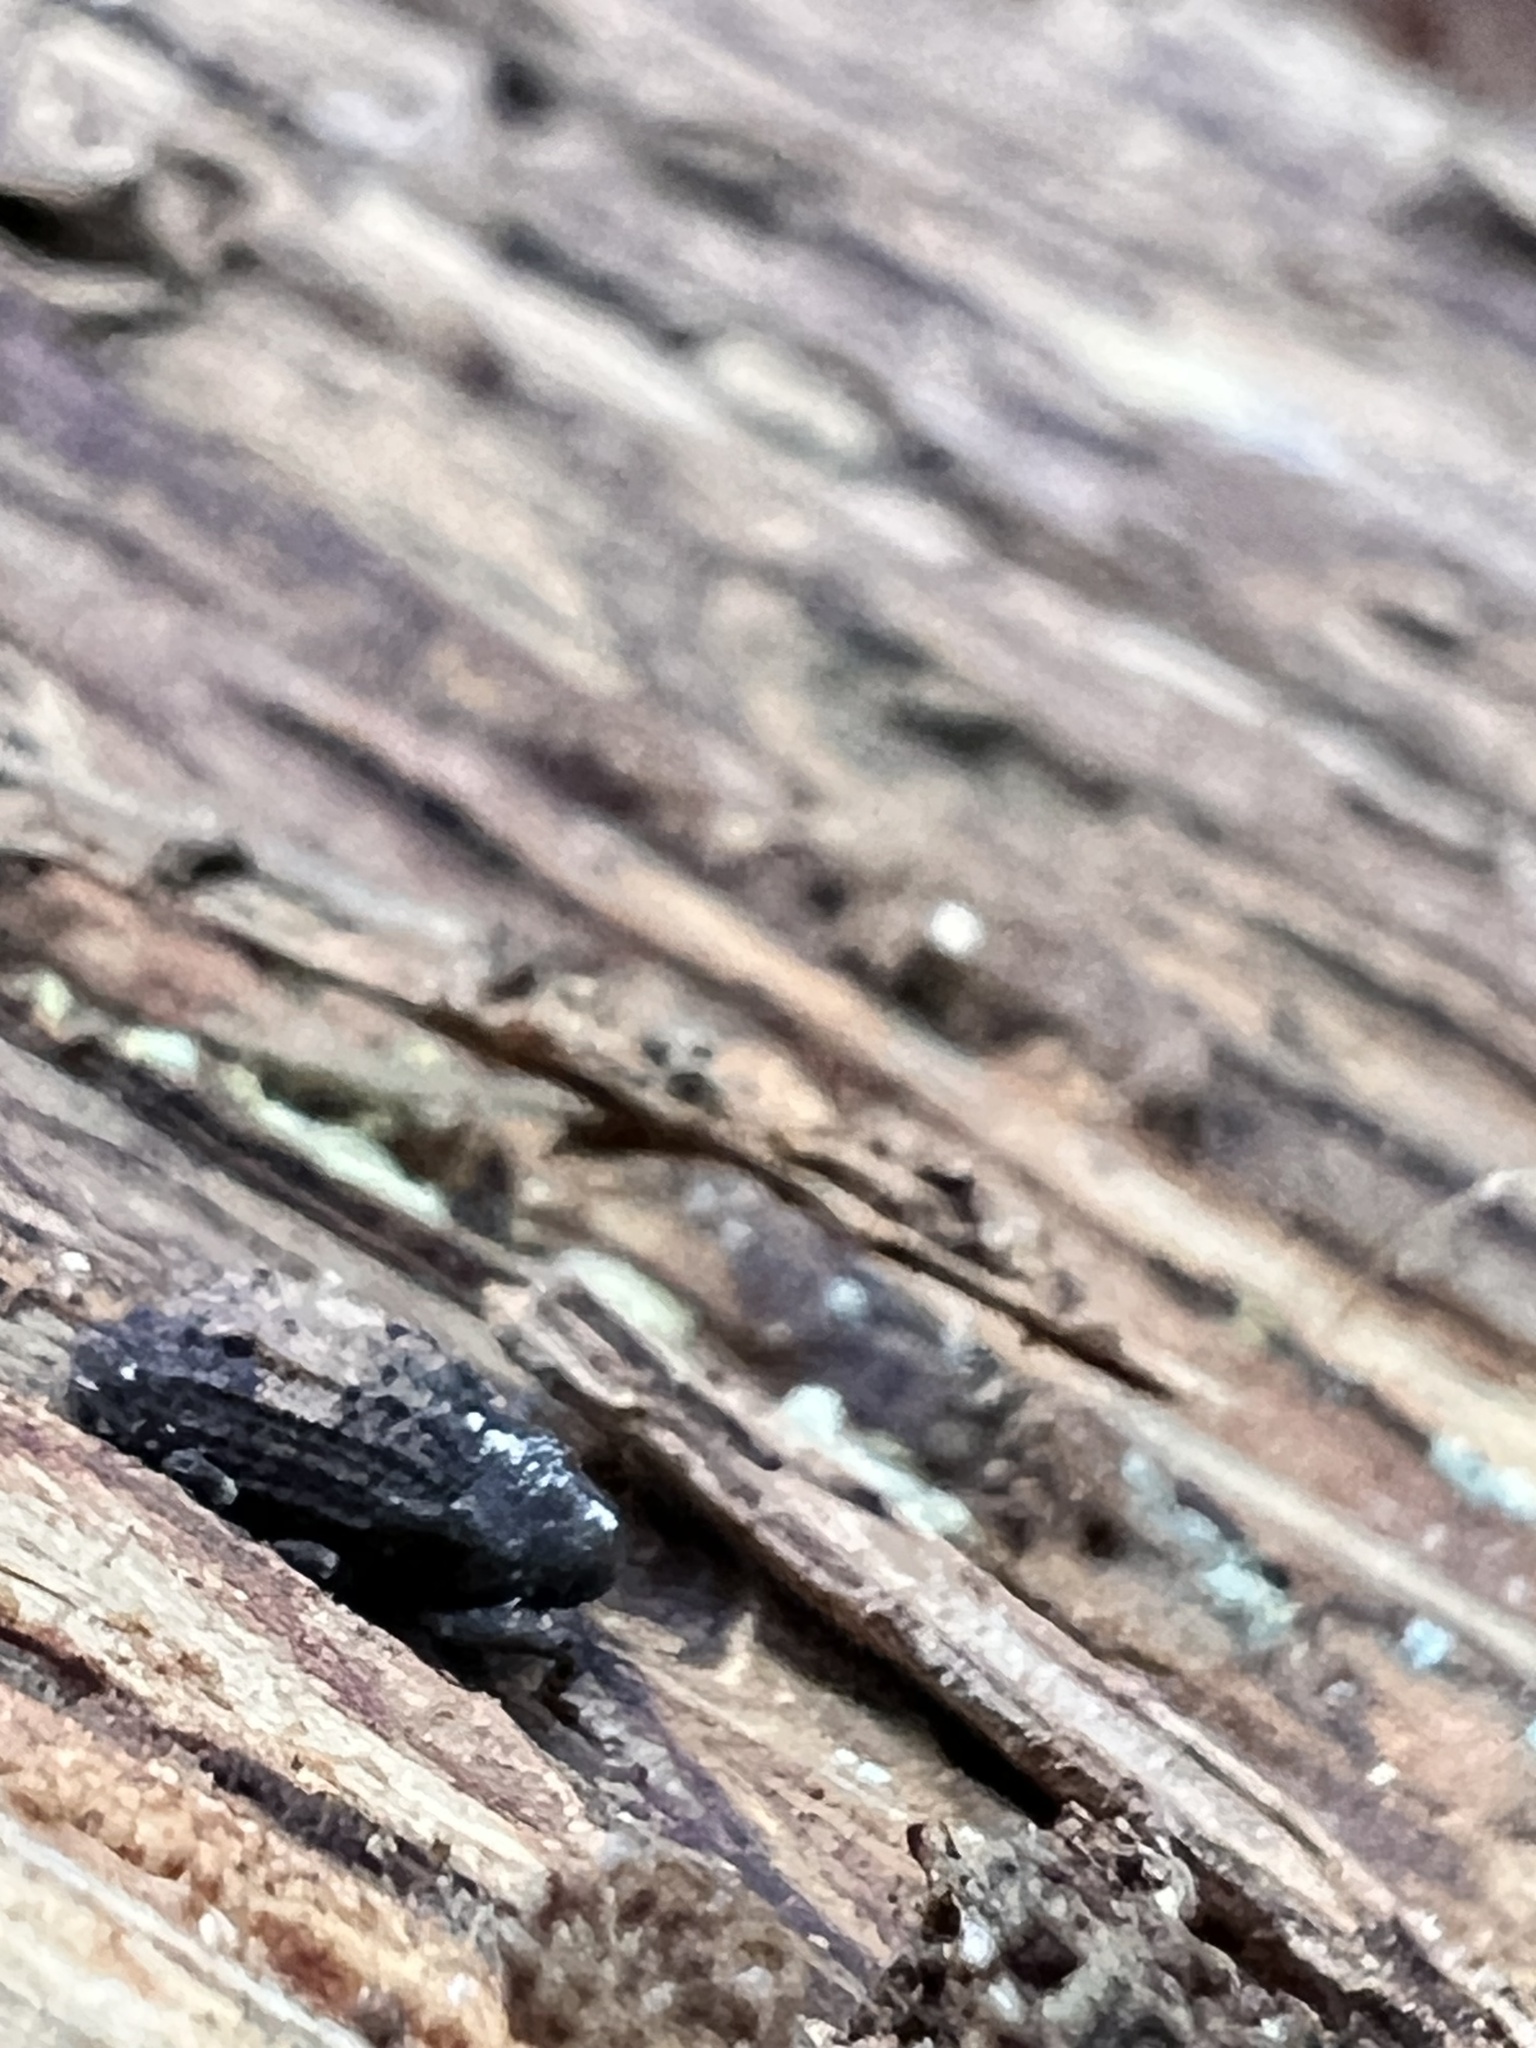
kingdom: Animalia
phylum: Arthropoda
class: Insecta
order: Coleoptera
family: Curculionidae
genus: Cophes
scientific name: Cophes obtentus
